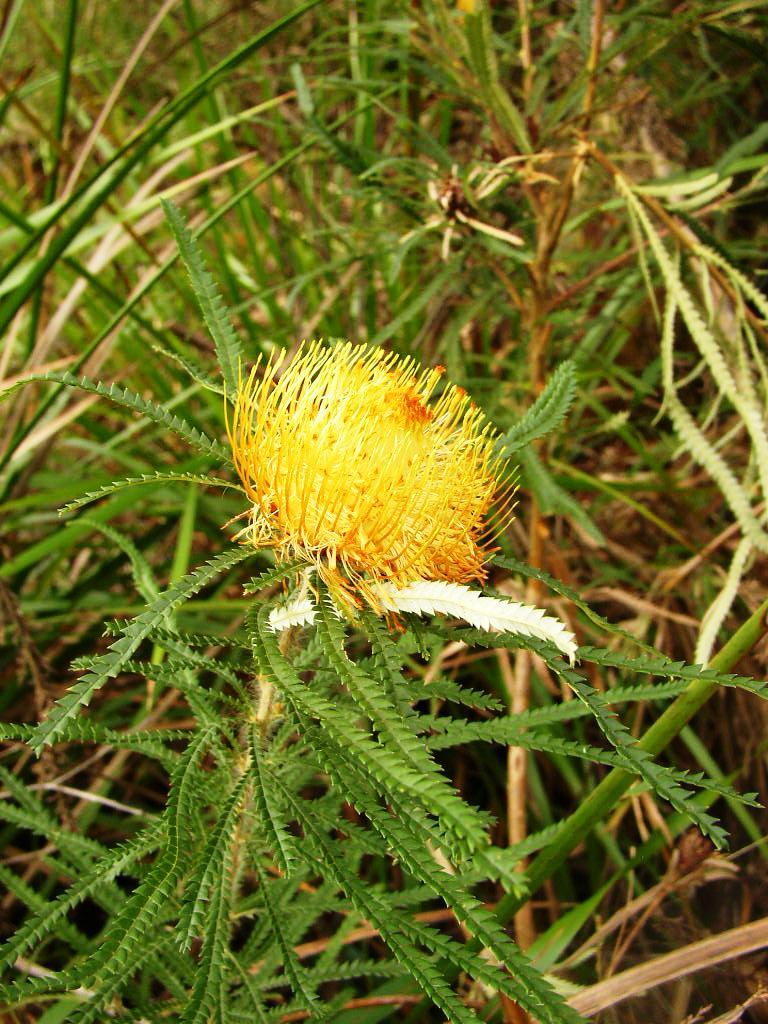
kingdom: Plantae
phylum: Tracheophyta
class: Magnoliopsida
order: Proteales
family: Proteaceae
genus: Banksia
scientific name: Banksia formosa
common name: Showy dryandra
